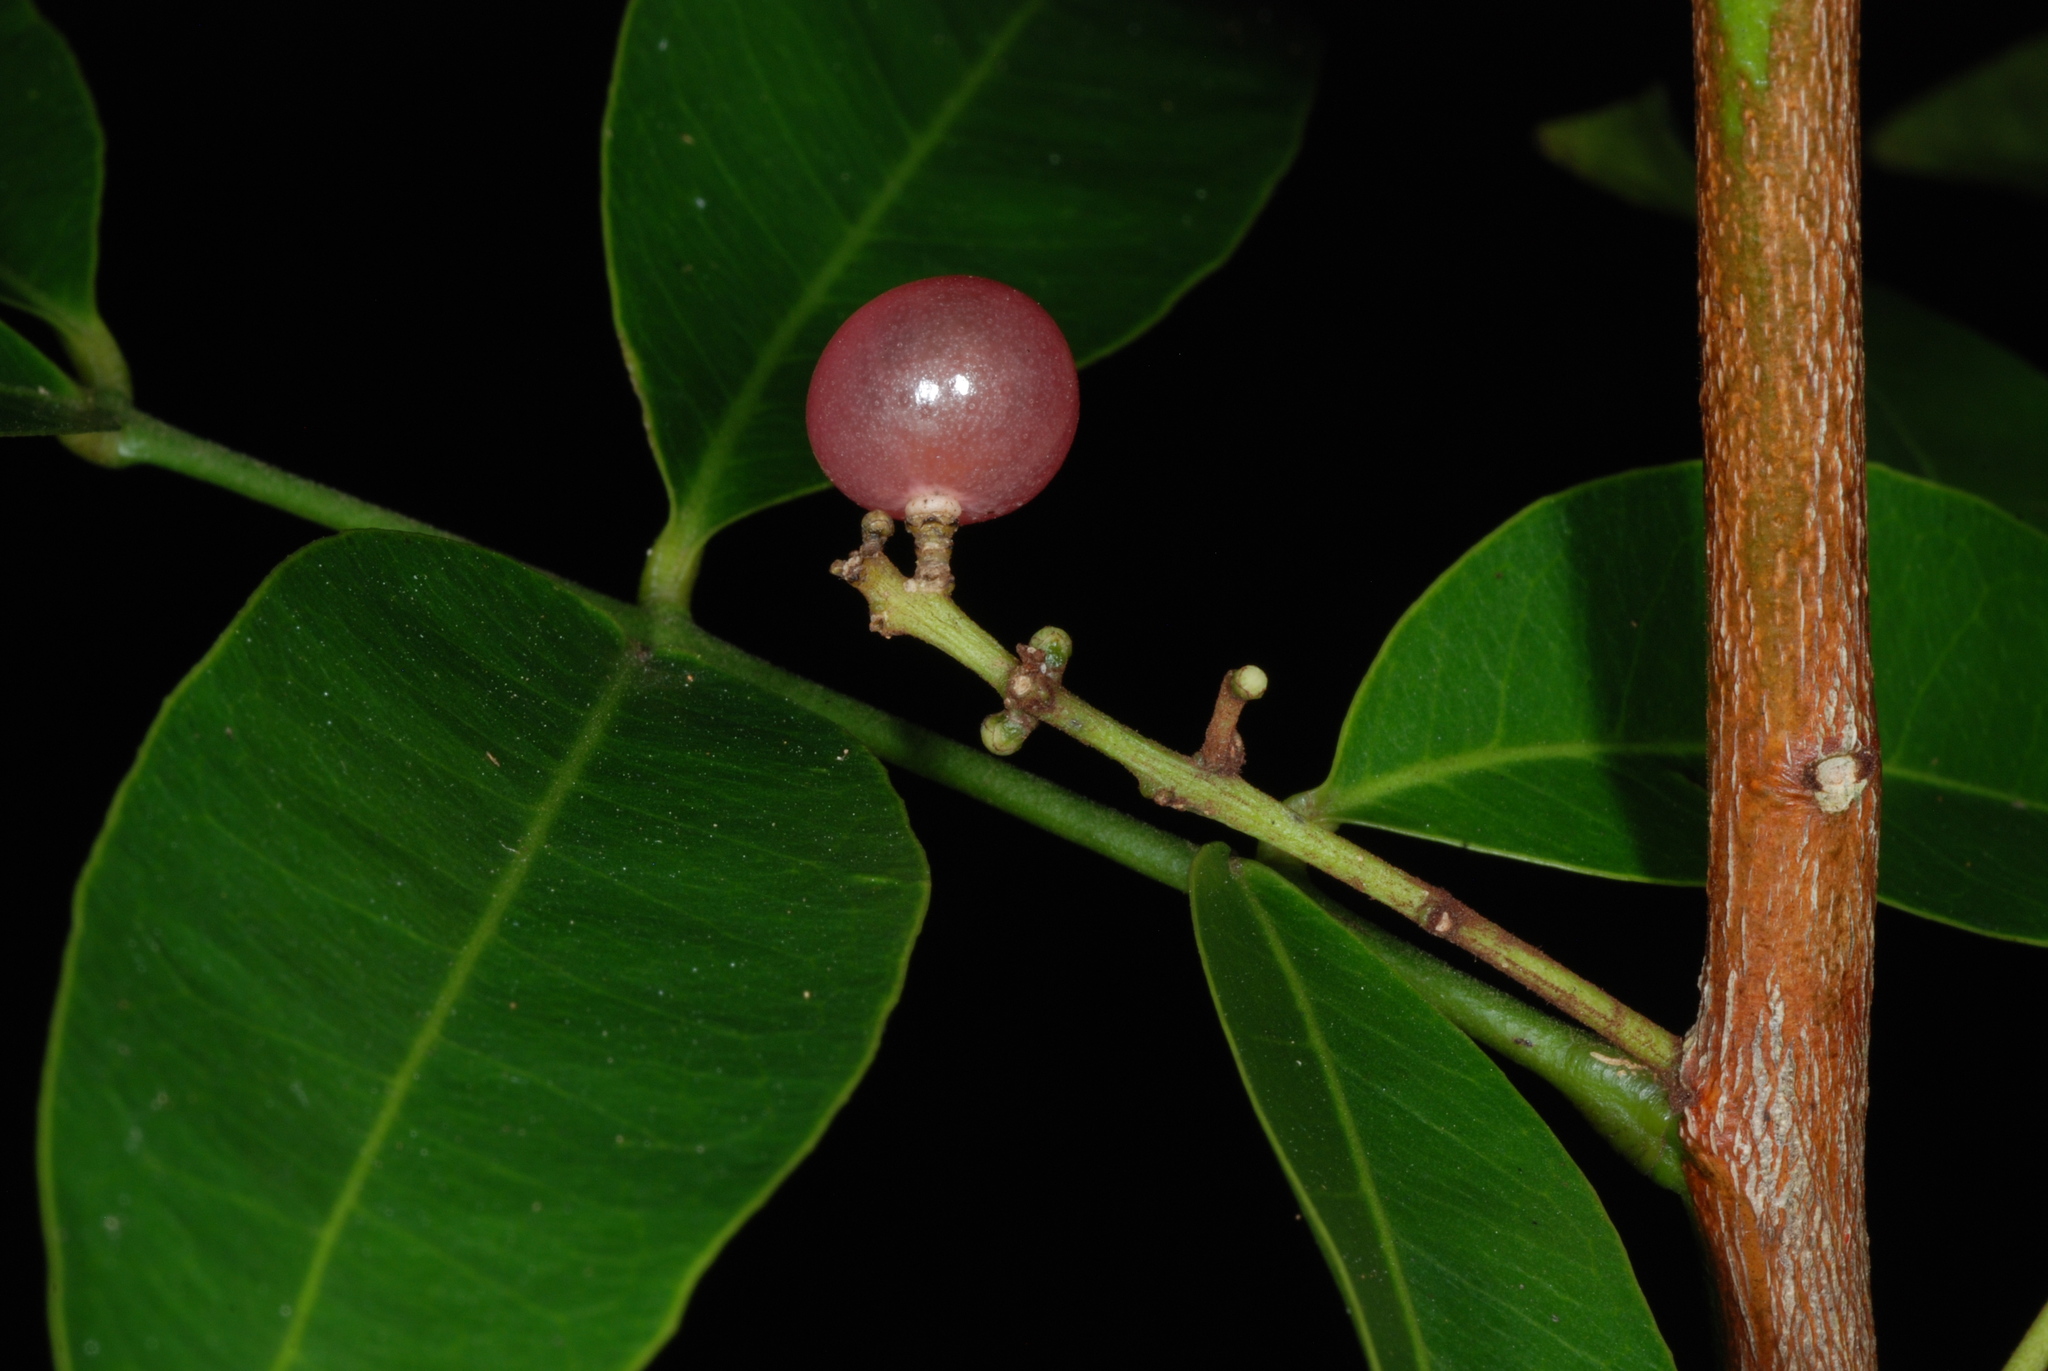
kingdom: Plantae
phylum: Tracheophyta
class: Magnoliopsida
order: Sapindales
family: Rutaceae
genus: Glycosmis
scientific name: Glycosmis parviflora
